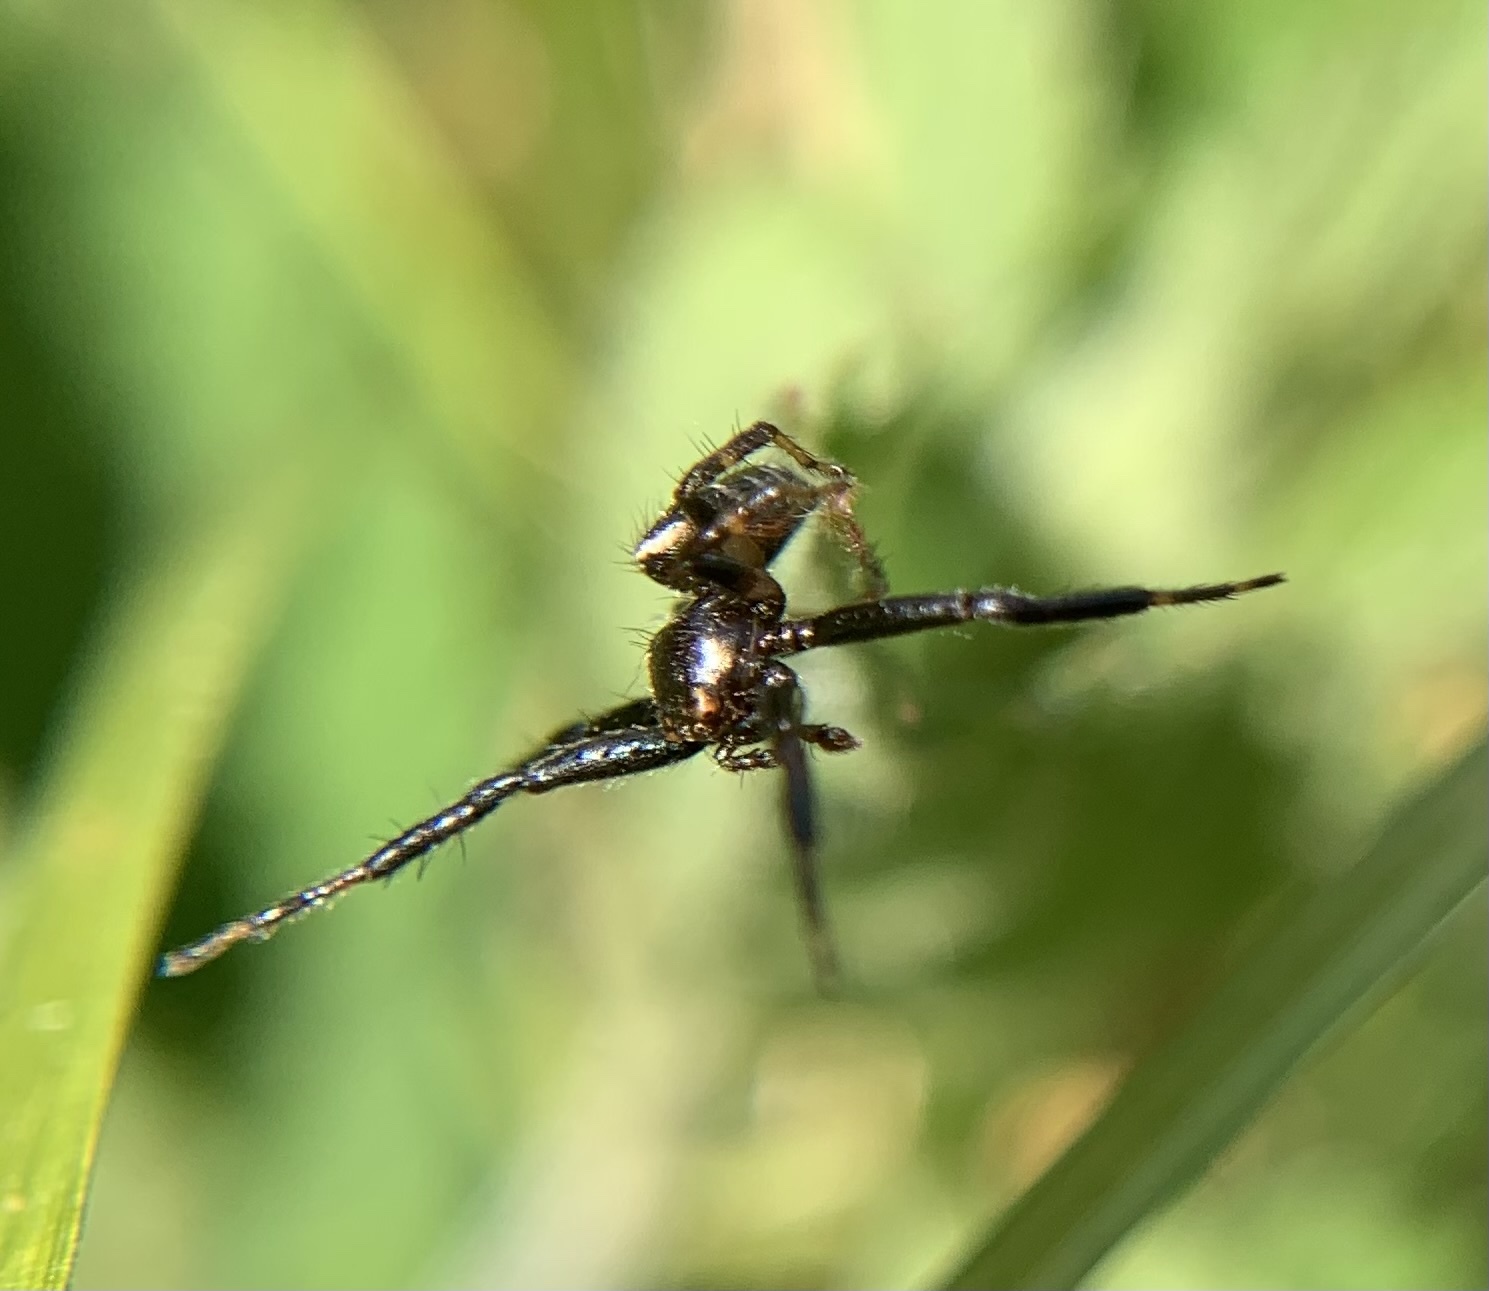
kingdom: Animalia
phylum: Arthropoda
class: Arachnida
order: Araneae
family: Thomisidae
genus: Synema
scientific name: Synema globosum
